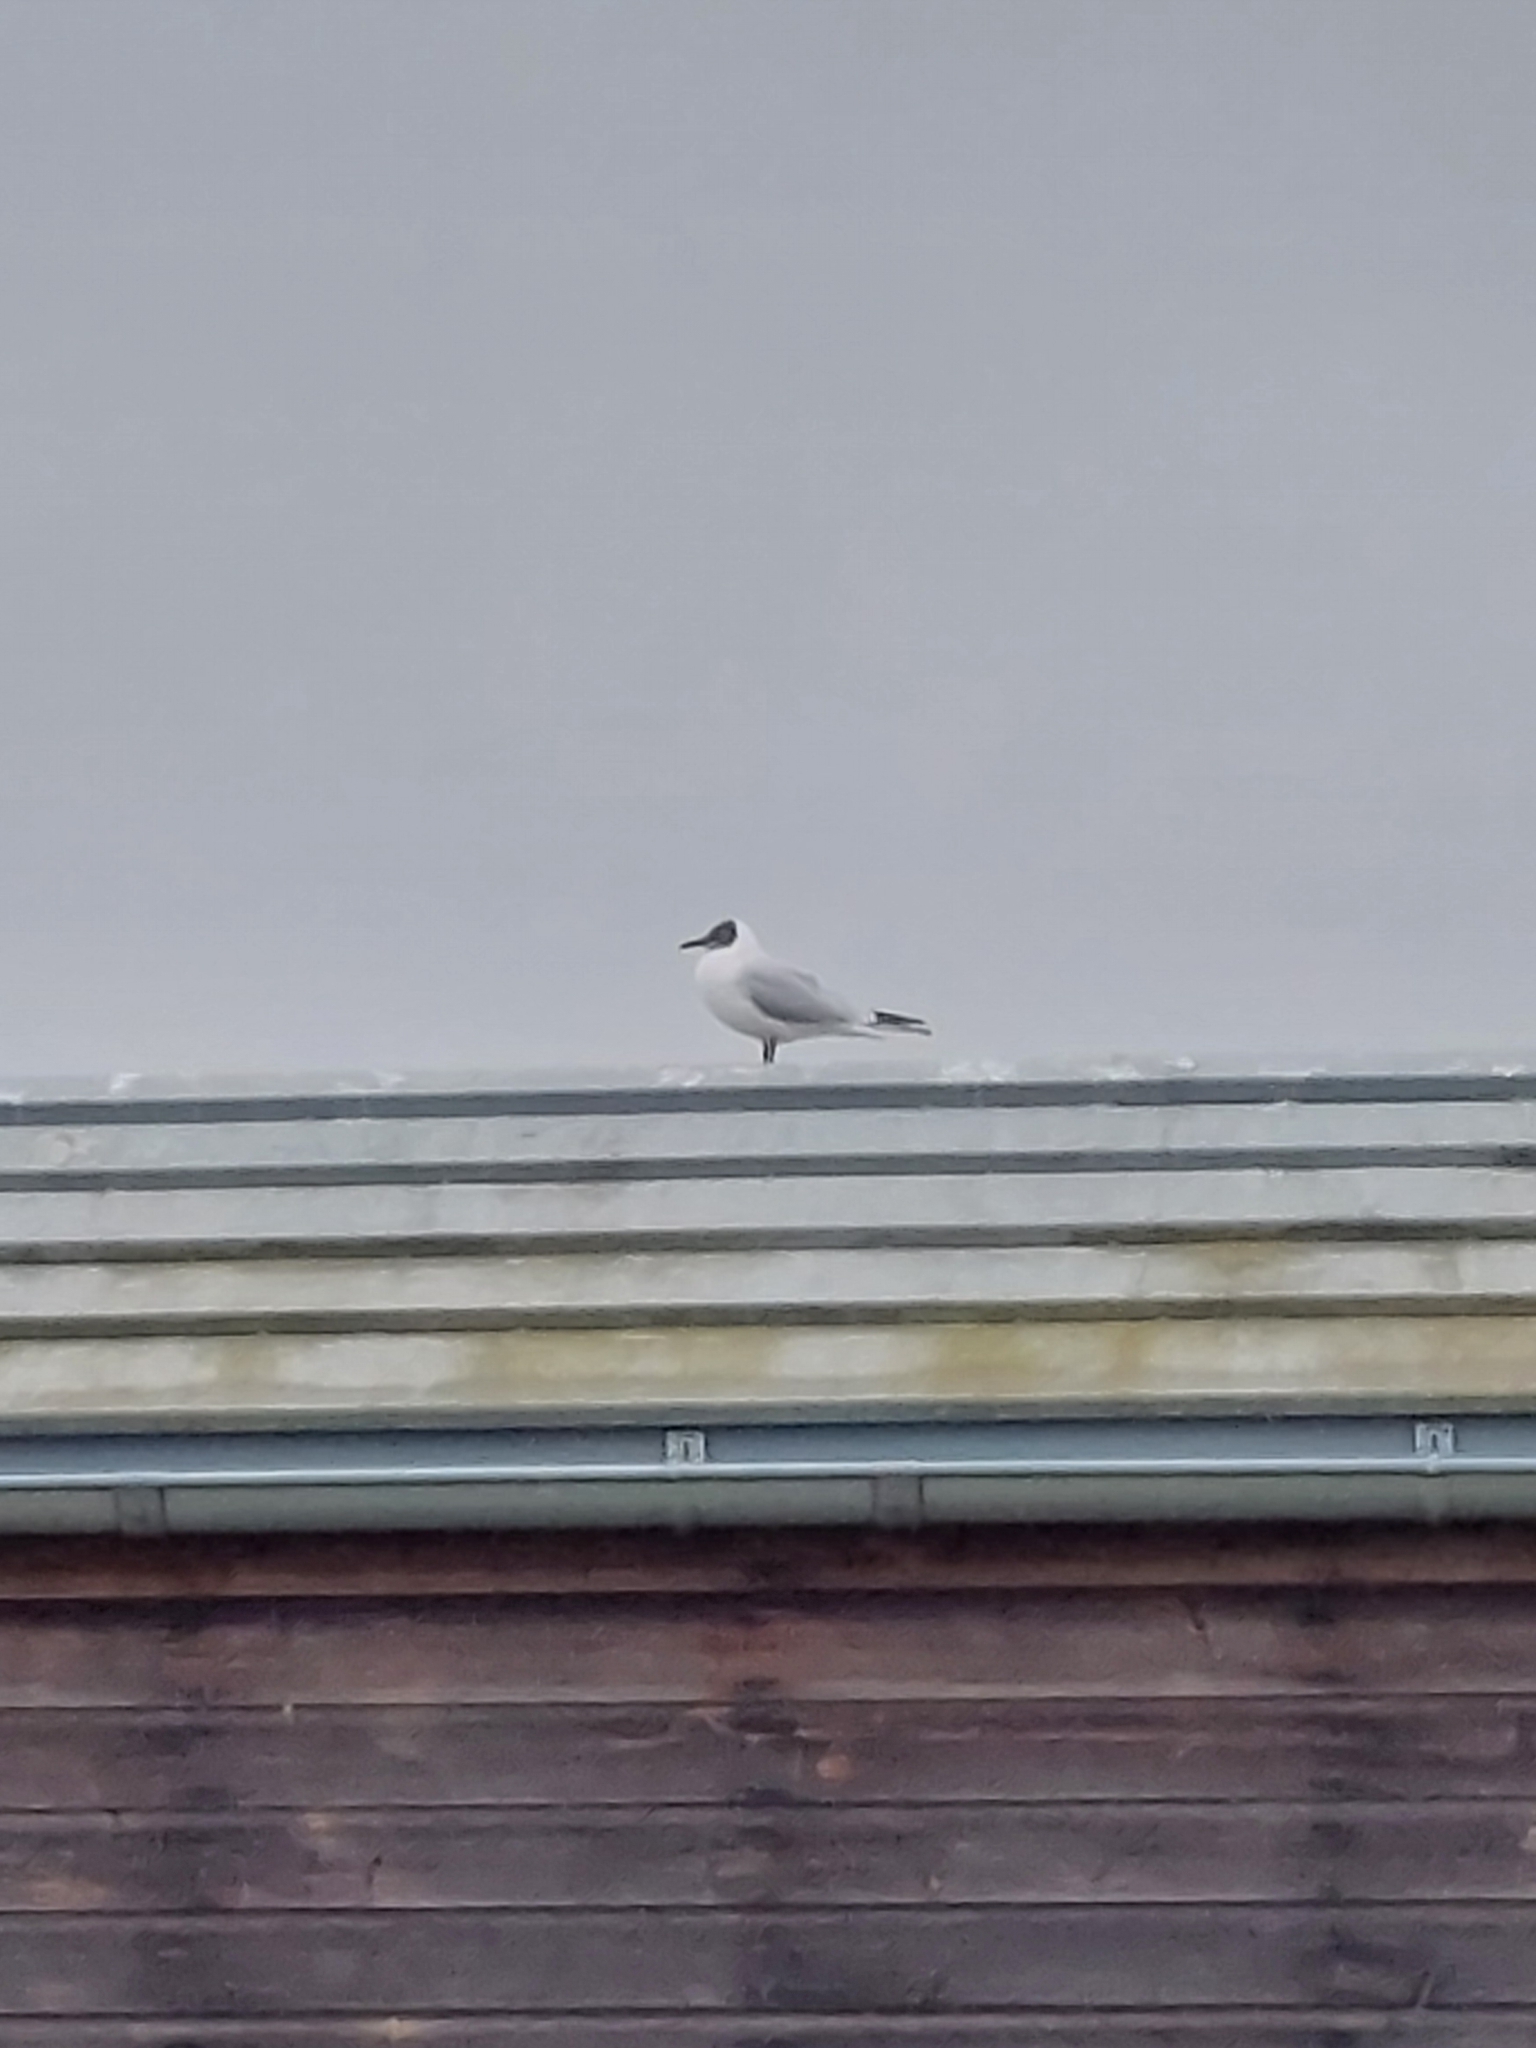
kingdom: Animalia
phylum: Chordata
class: Aves
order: Charadriiformes
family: Laridae
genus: Chroicocephalus
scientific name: Chroicocephalus ridibundus
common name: Black-headed gull
